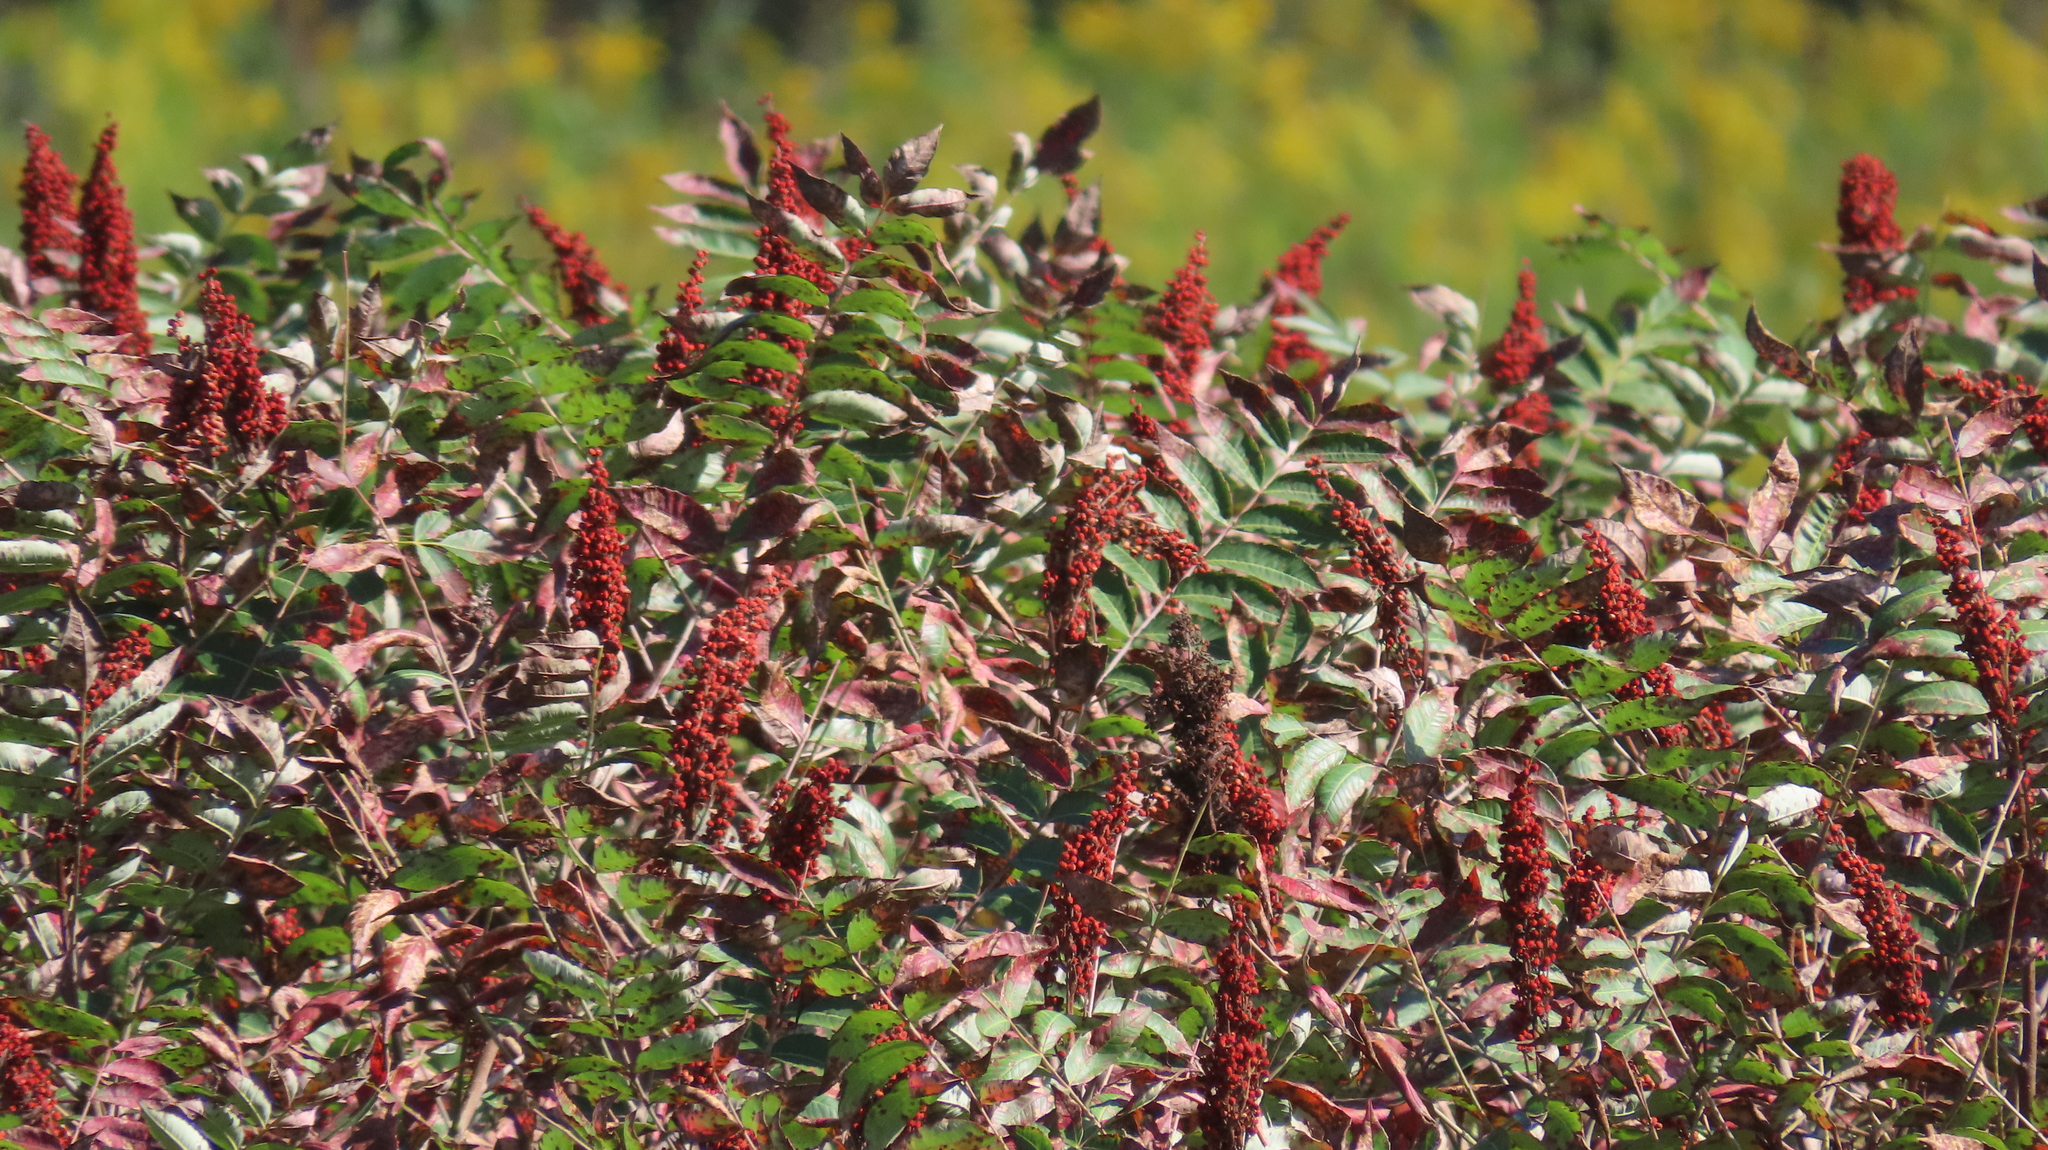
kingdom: Plantae
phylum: Tracheophyta
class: Magnoliopsida
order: Sapindales
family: Anacardiaceae
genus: Rhus
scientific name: Rhus glabra
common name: Scarlet sumac
